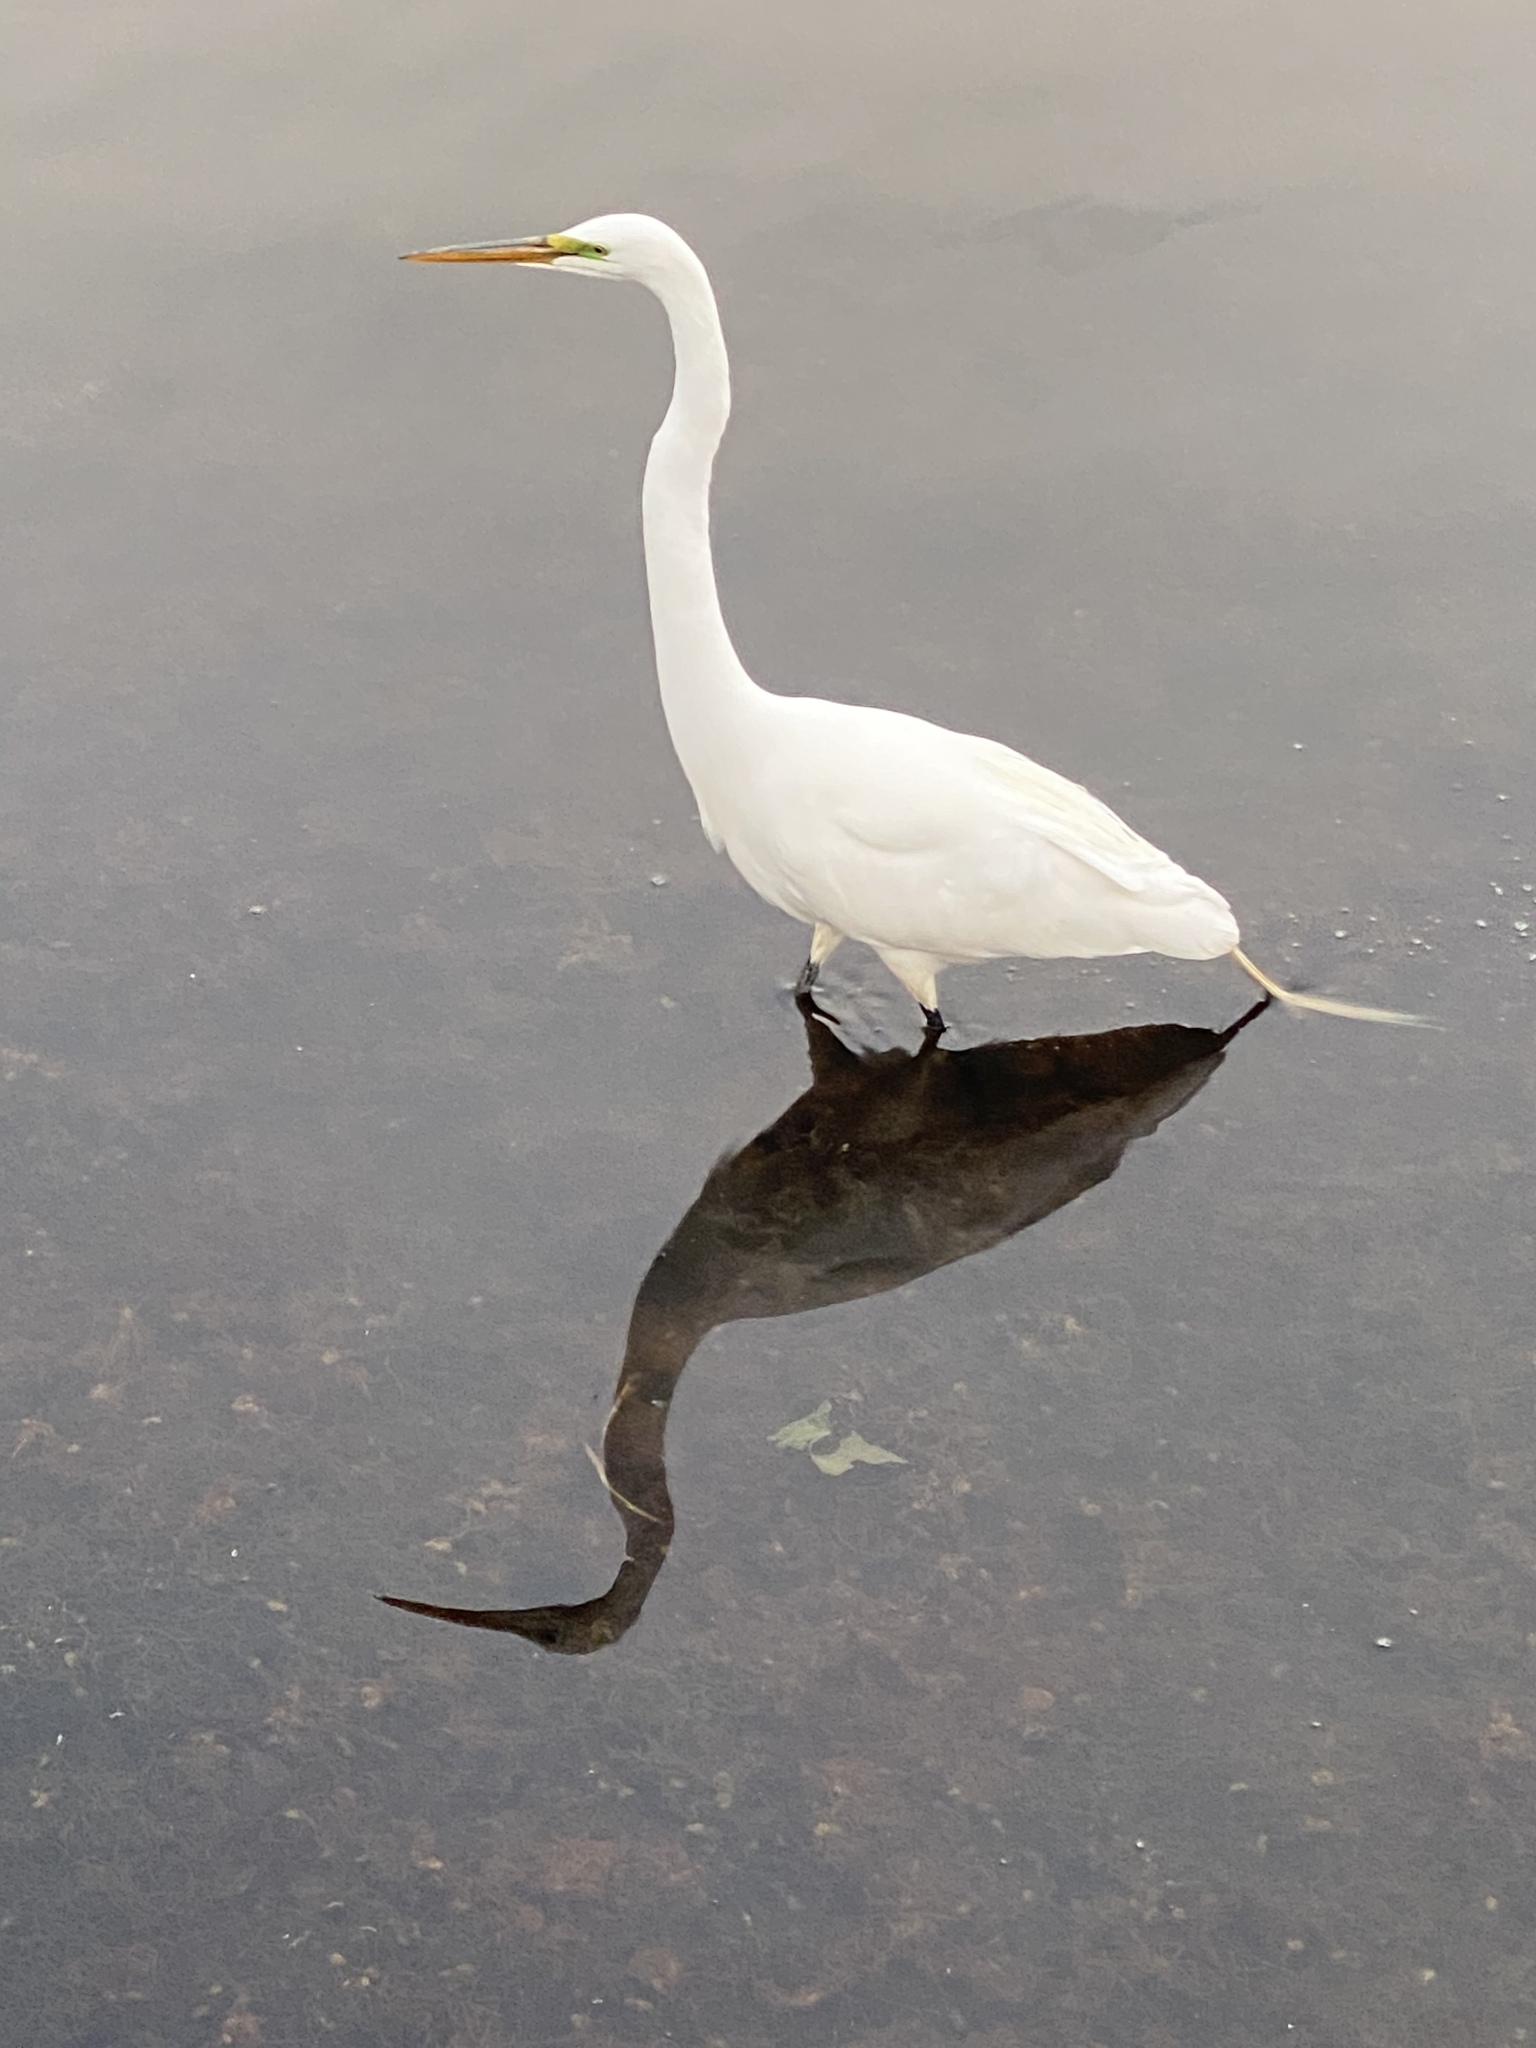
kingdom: Animalia
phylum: Chordata
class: Aves
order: Pelecaniformes
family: Ardeidae
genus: Ardea
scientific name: Ardea alba
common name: Great egret
